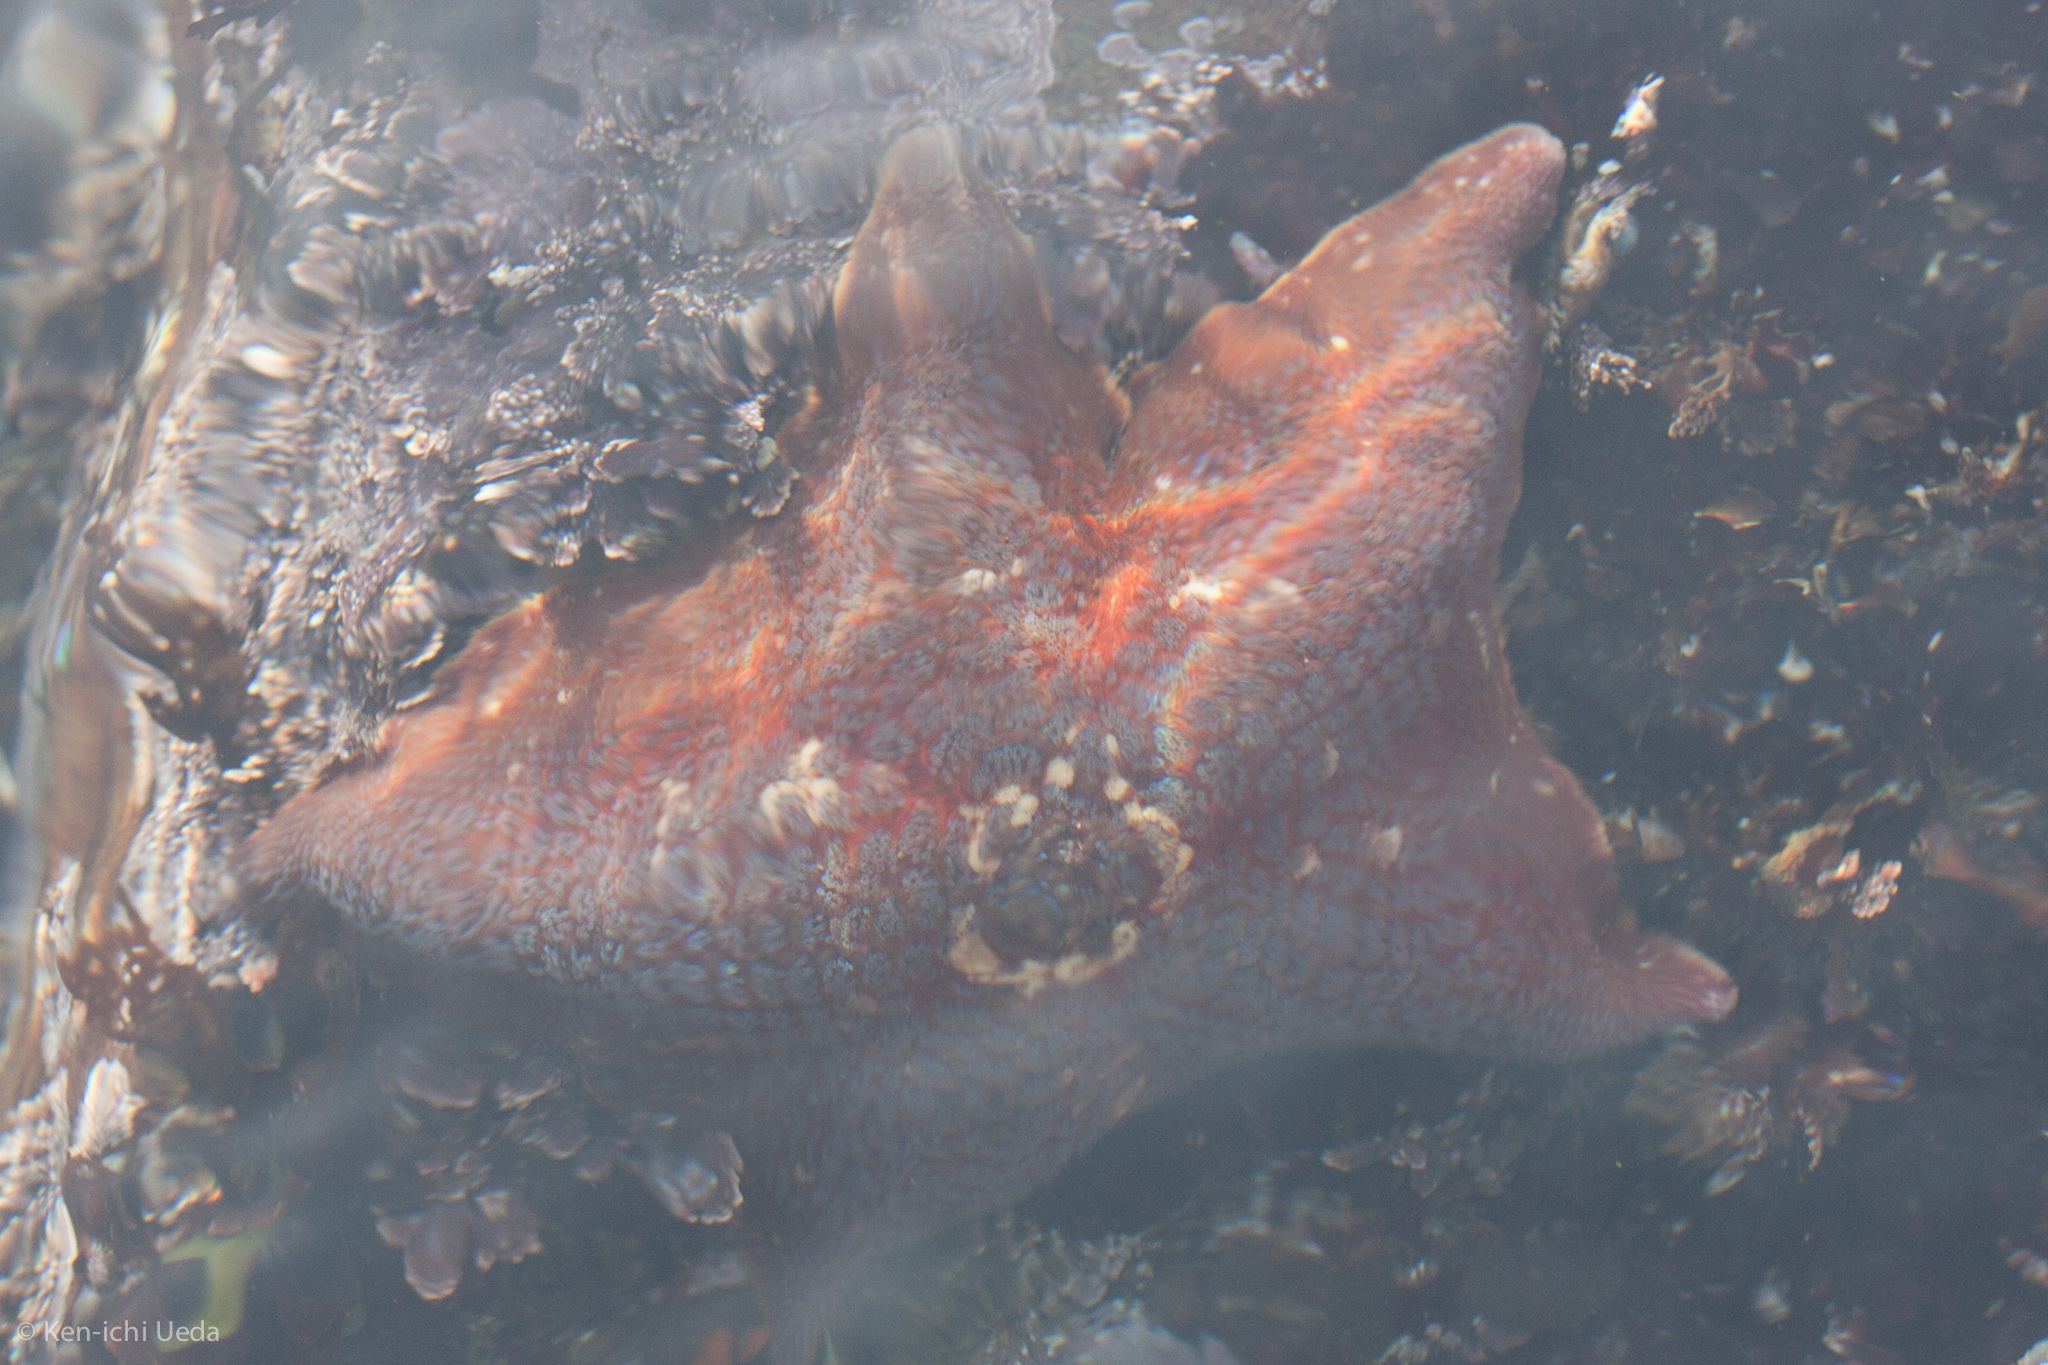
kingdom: Animalia
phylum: Echinodermata
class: Asteroidea
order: Valvatida
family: Asteropseidae
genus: Dermasterias
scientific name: Dermasterias imbricata
